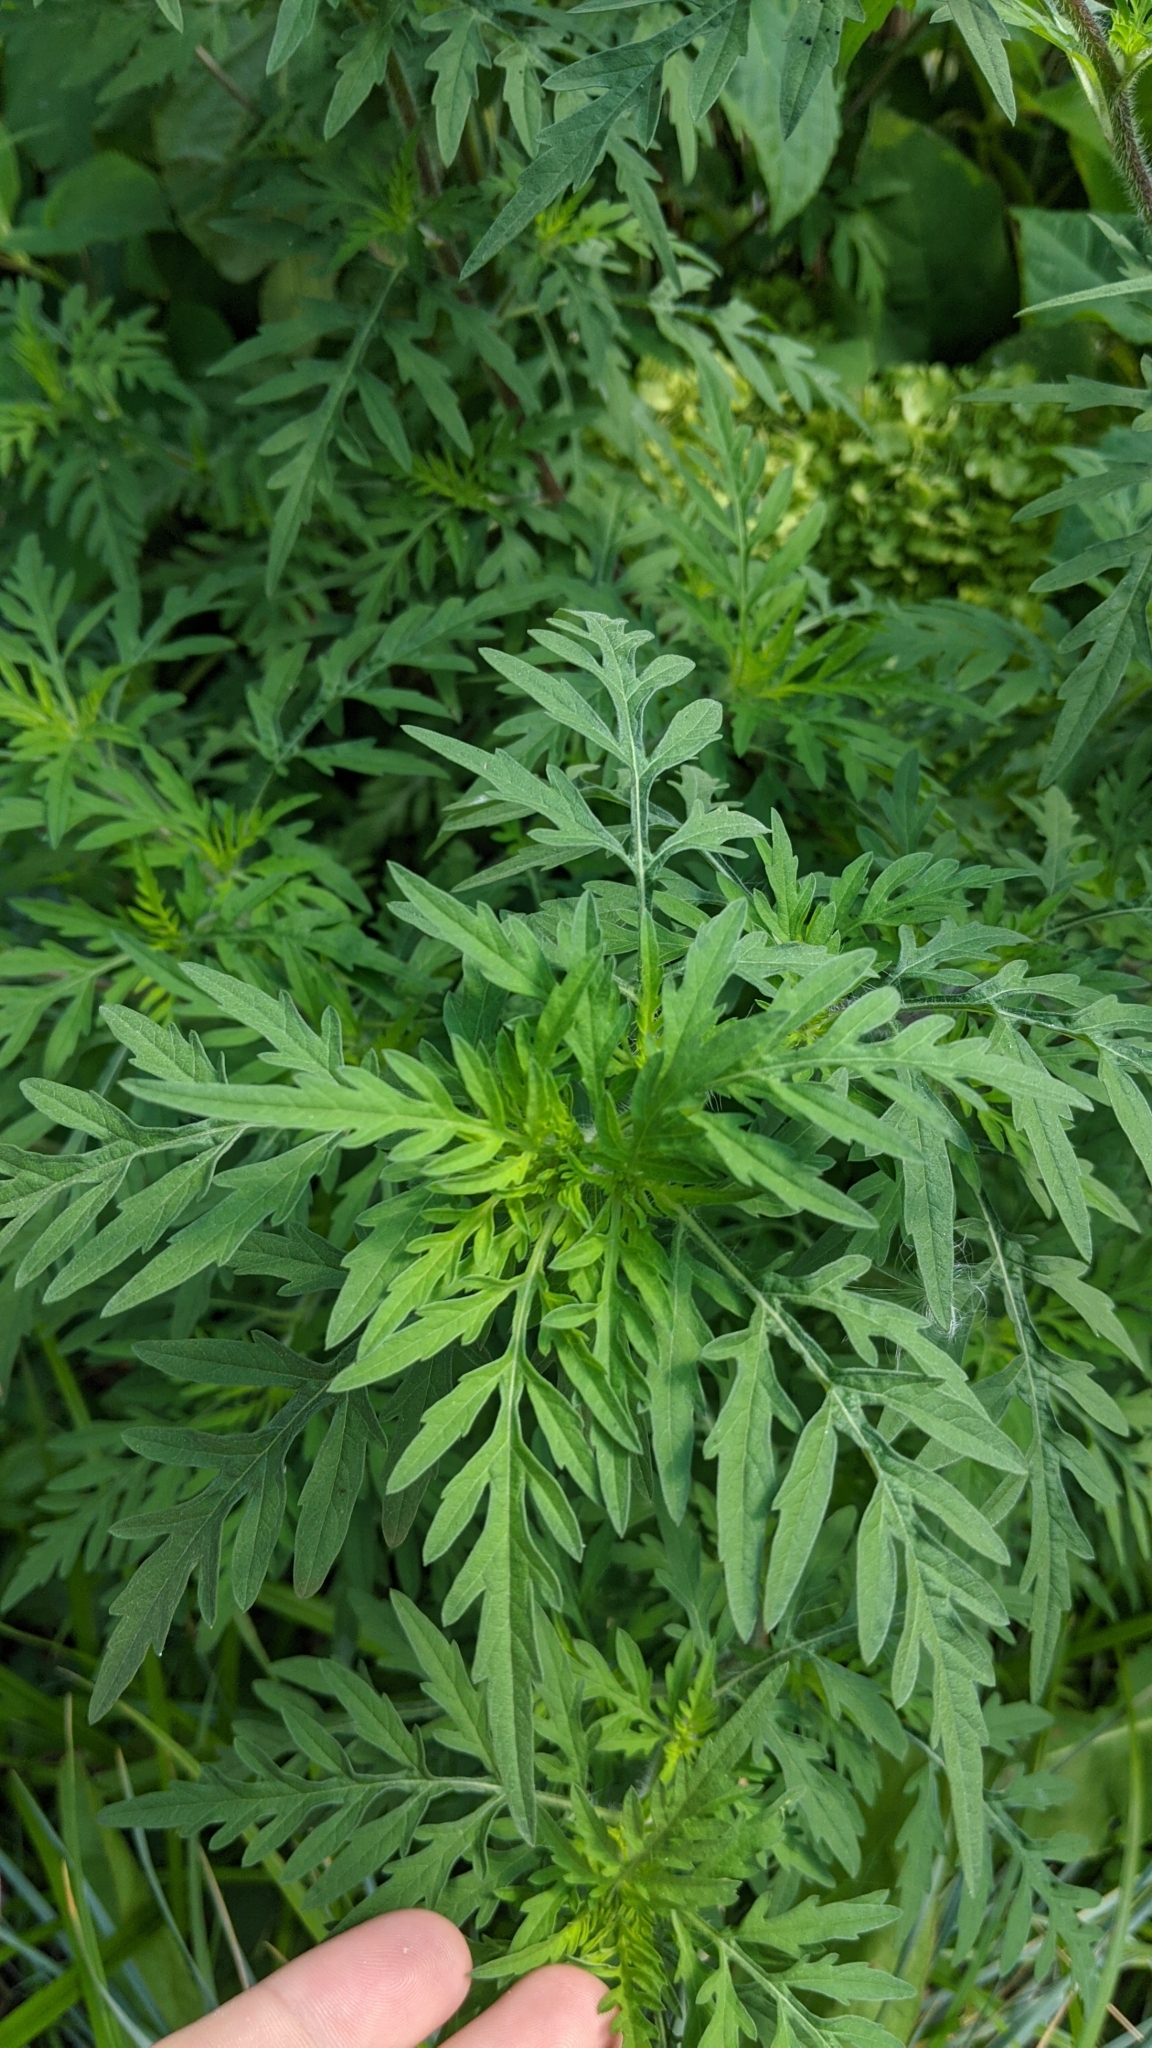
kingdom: Plantae
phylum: Tracheophyta
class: Magnoliopsida
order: Asterales
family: Asteraceae
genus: Ambrosia
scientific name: Ambrosia artemisiifolia
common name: Annual ragweed
